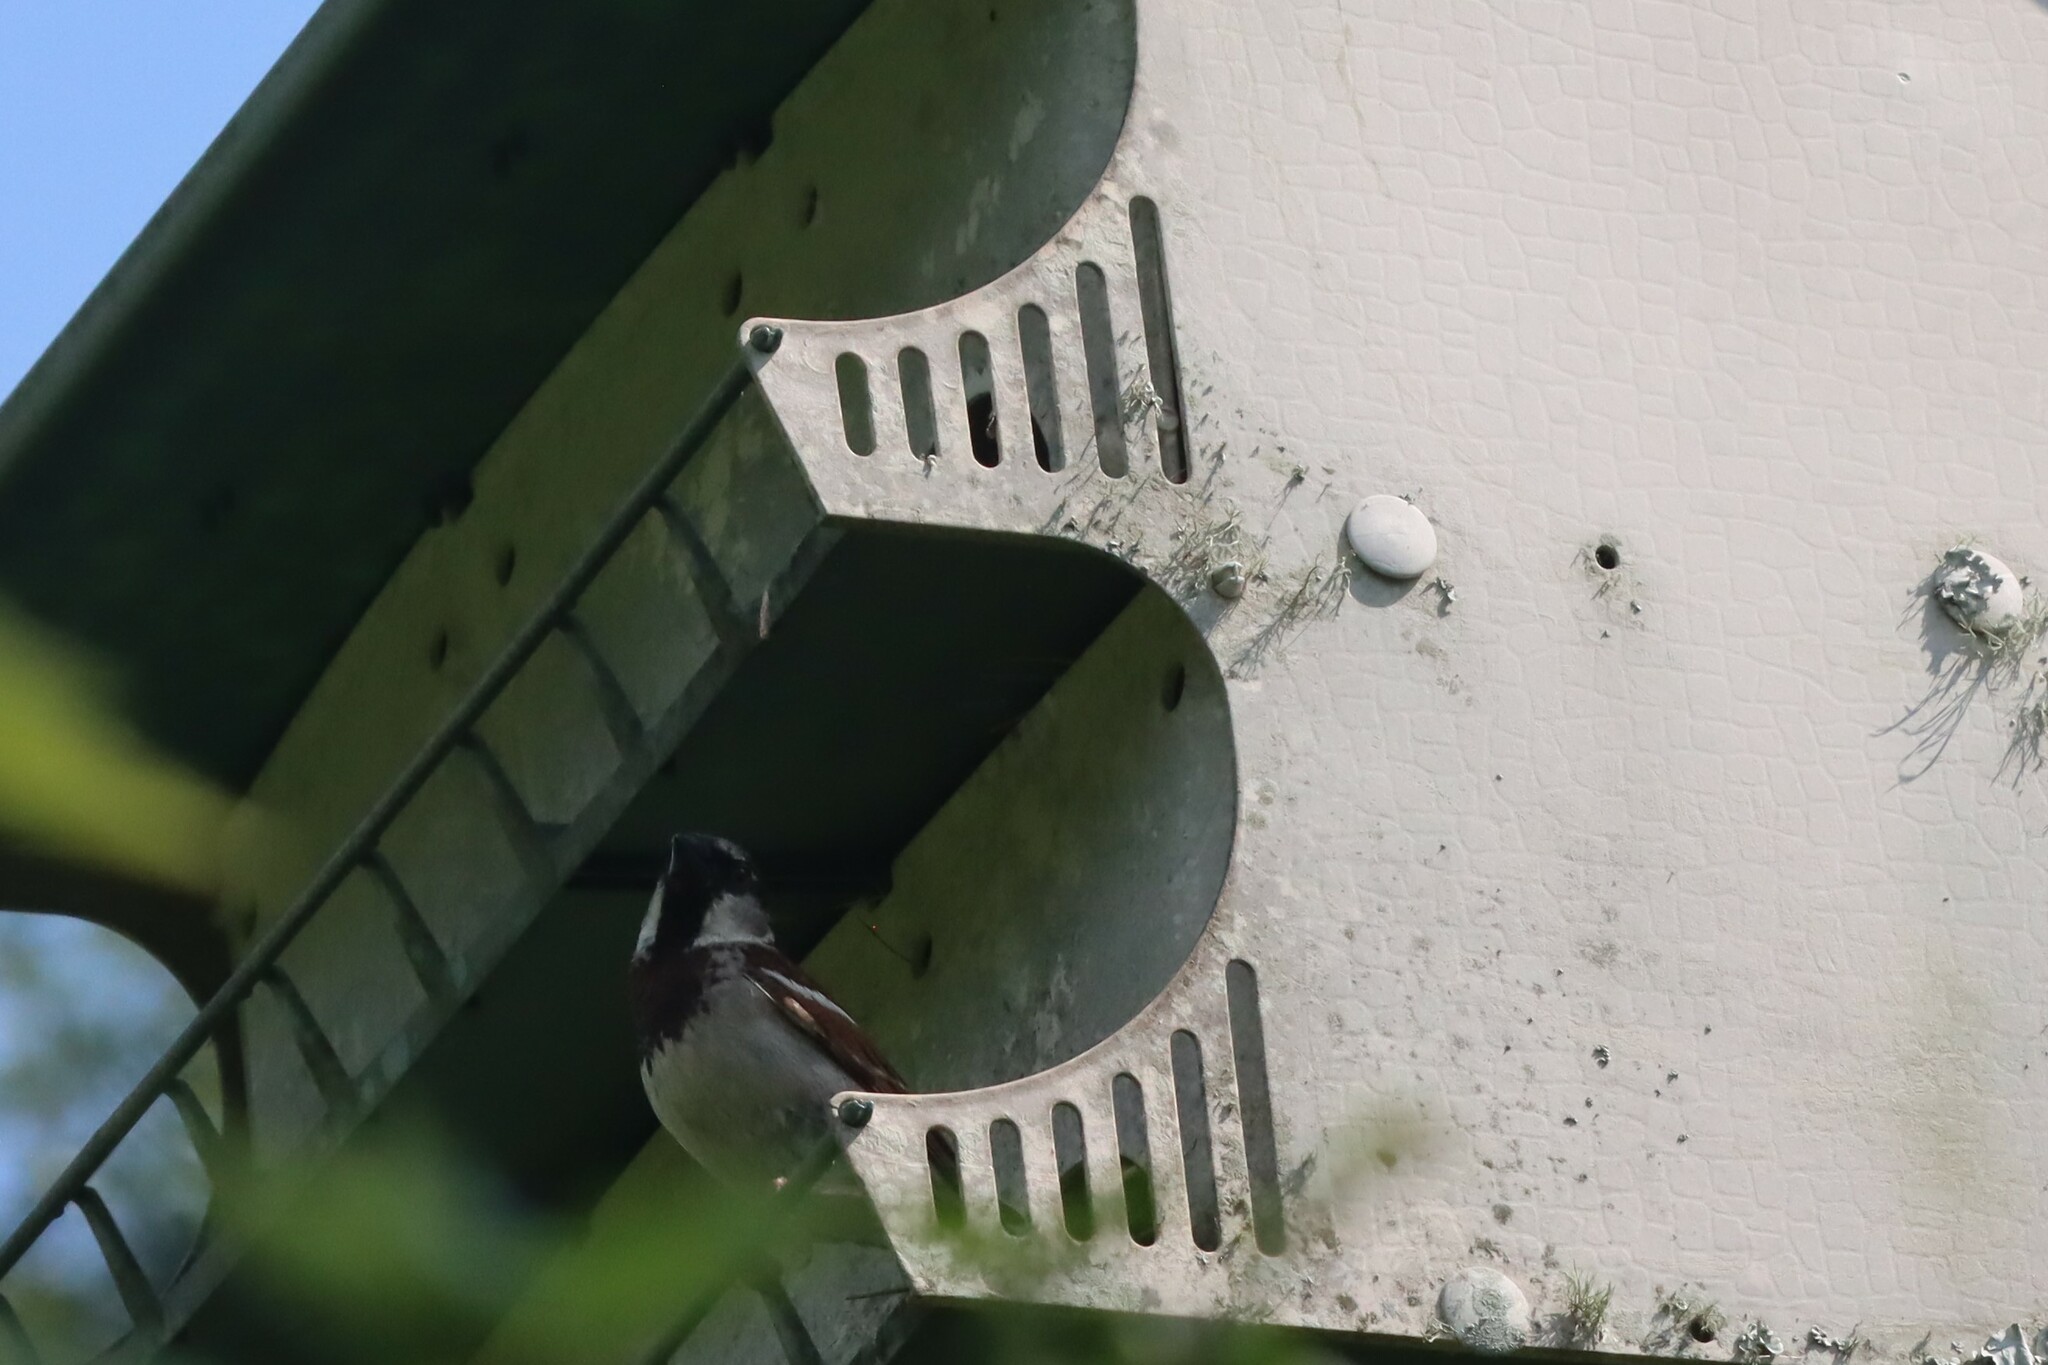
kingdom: Animalia
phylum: Chordata
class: Aves
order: Passeriformes
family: Passeridae
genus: Passer
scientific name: Passer domesticus
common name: House sparrow
